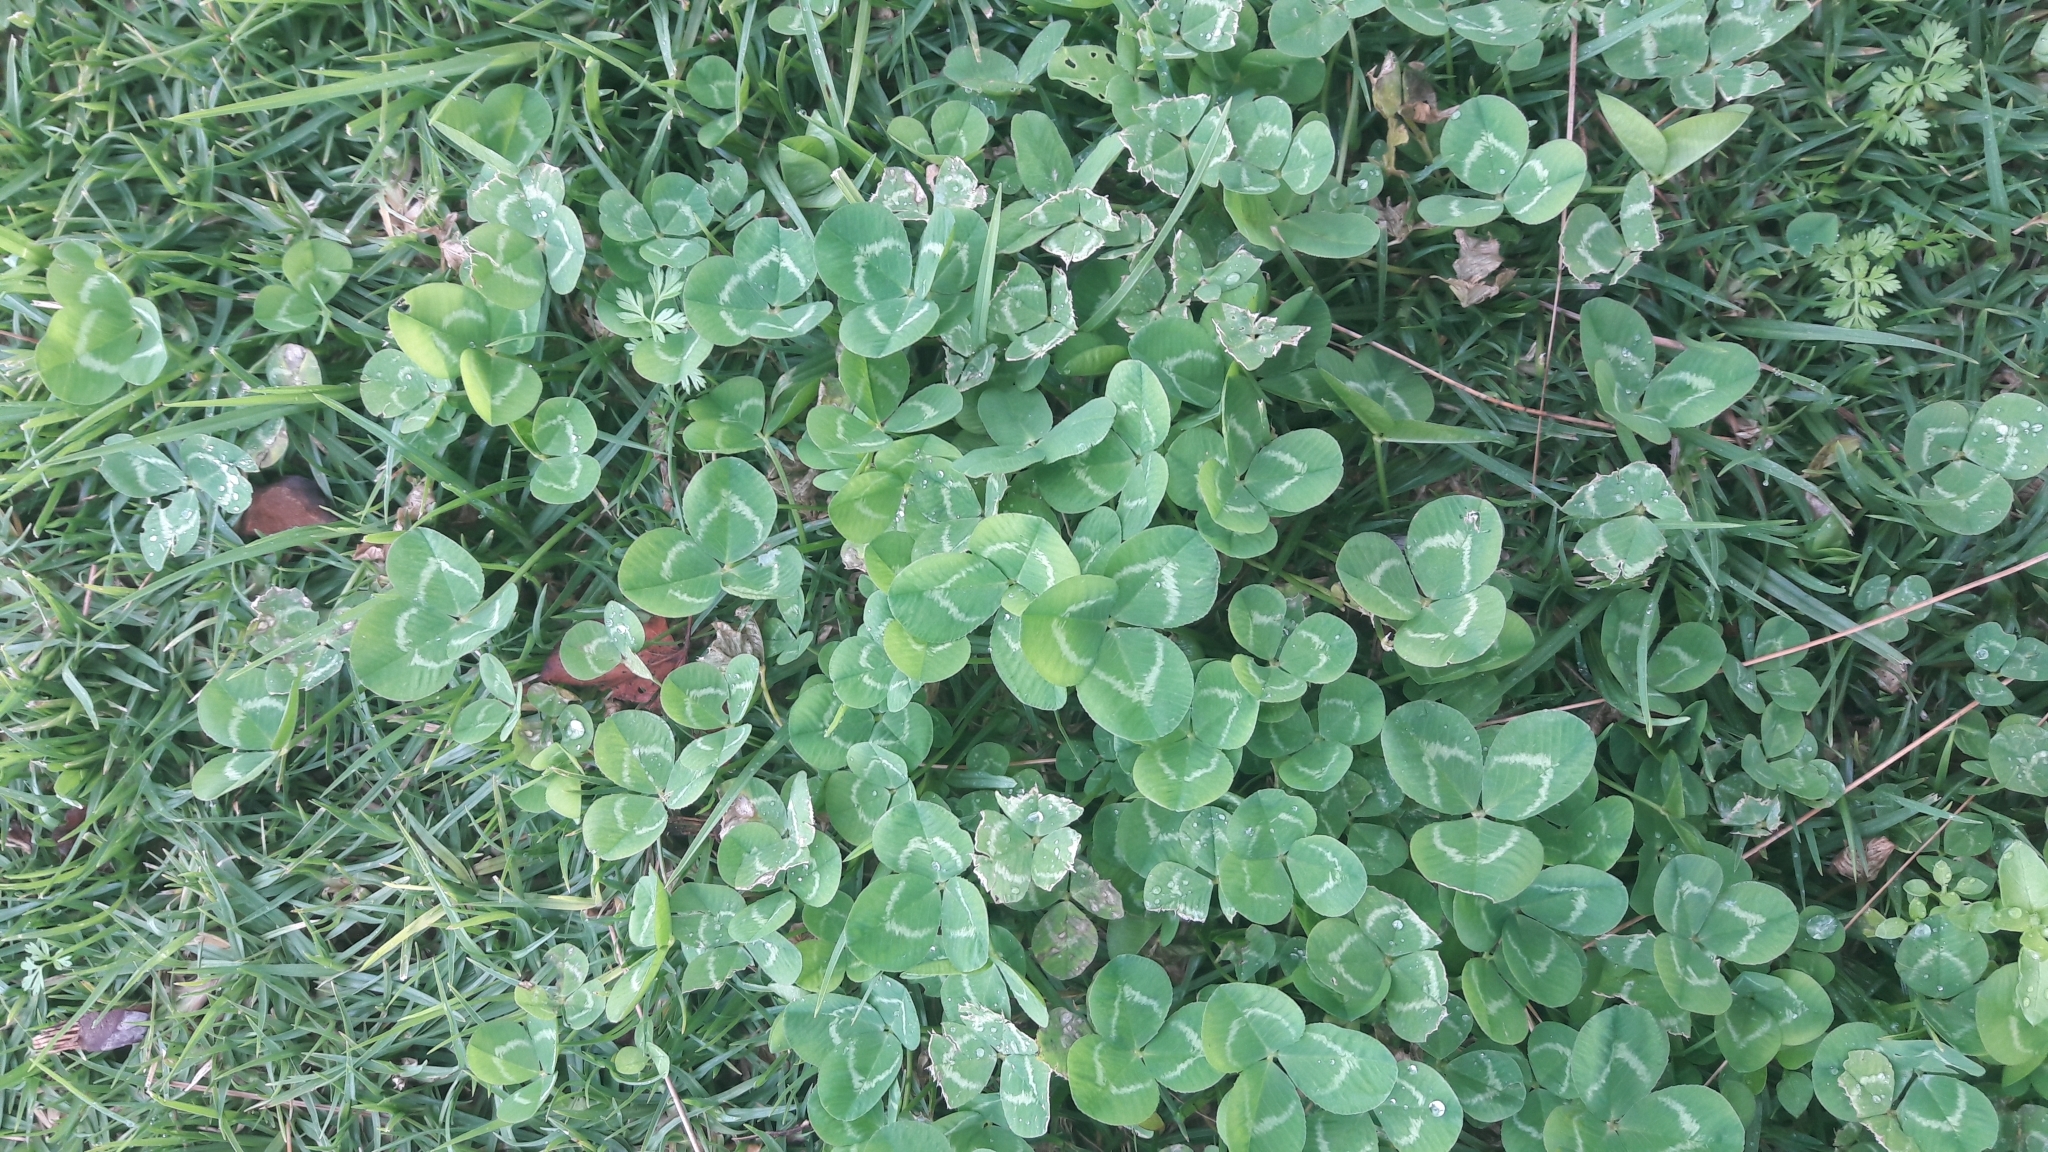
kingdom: Plantae
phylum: Tracheophyta
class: Magnoliopsida
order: Fabales
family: Fabaceae
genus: Trifolium
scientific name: Trifolium repens
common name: White clover
